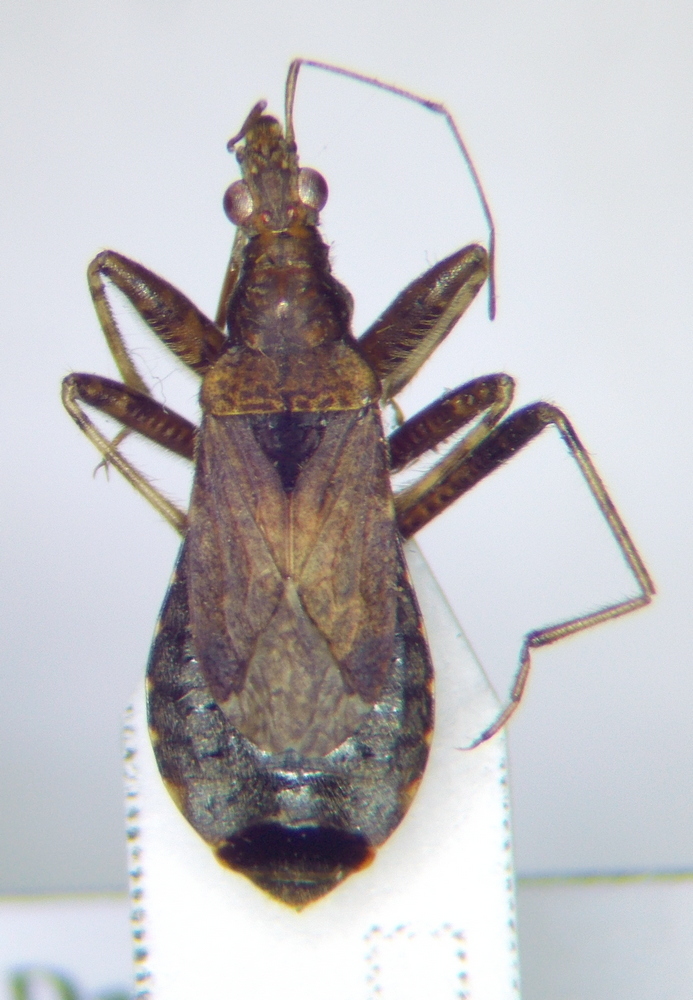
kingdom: Animalia
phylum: Arthropoda
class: Insecta
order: Hemiptera
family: Nabidae
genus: Himacerus
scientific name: Himacerus mirmicoides
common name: Ant damsel bug
